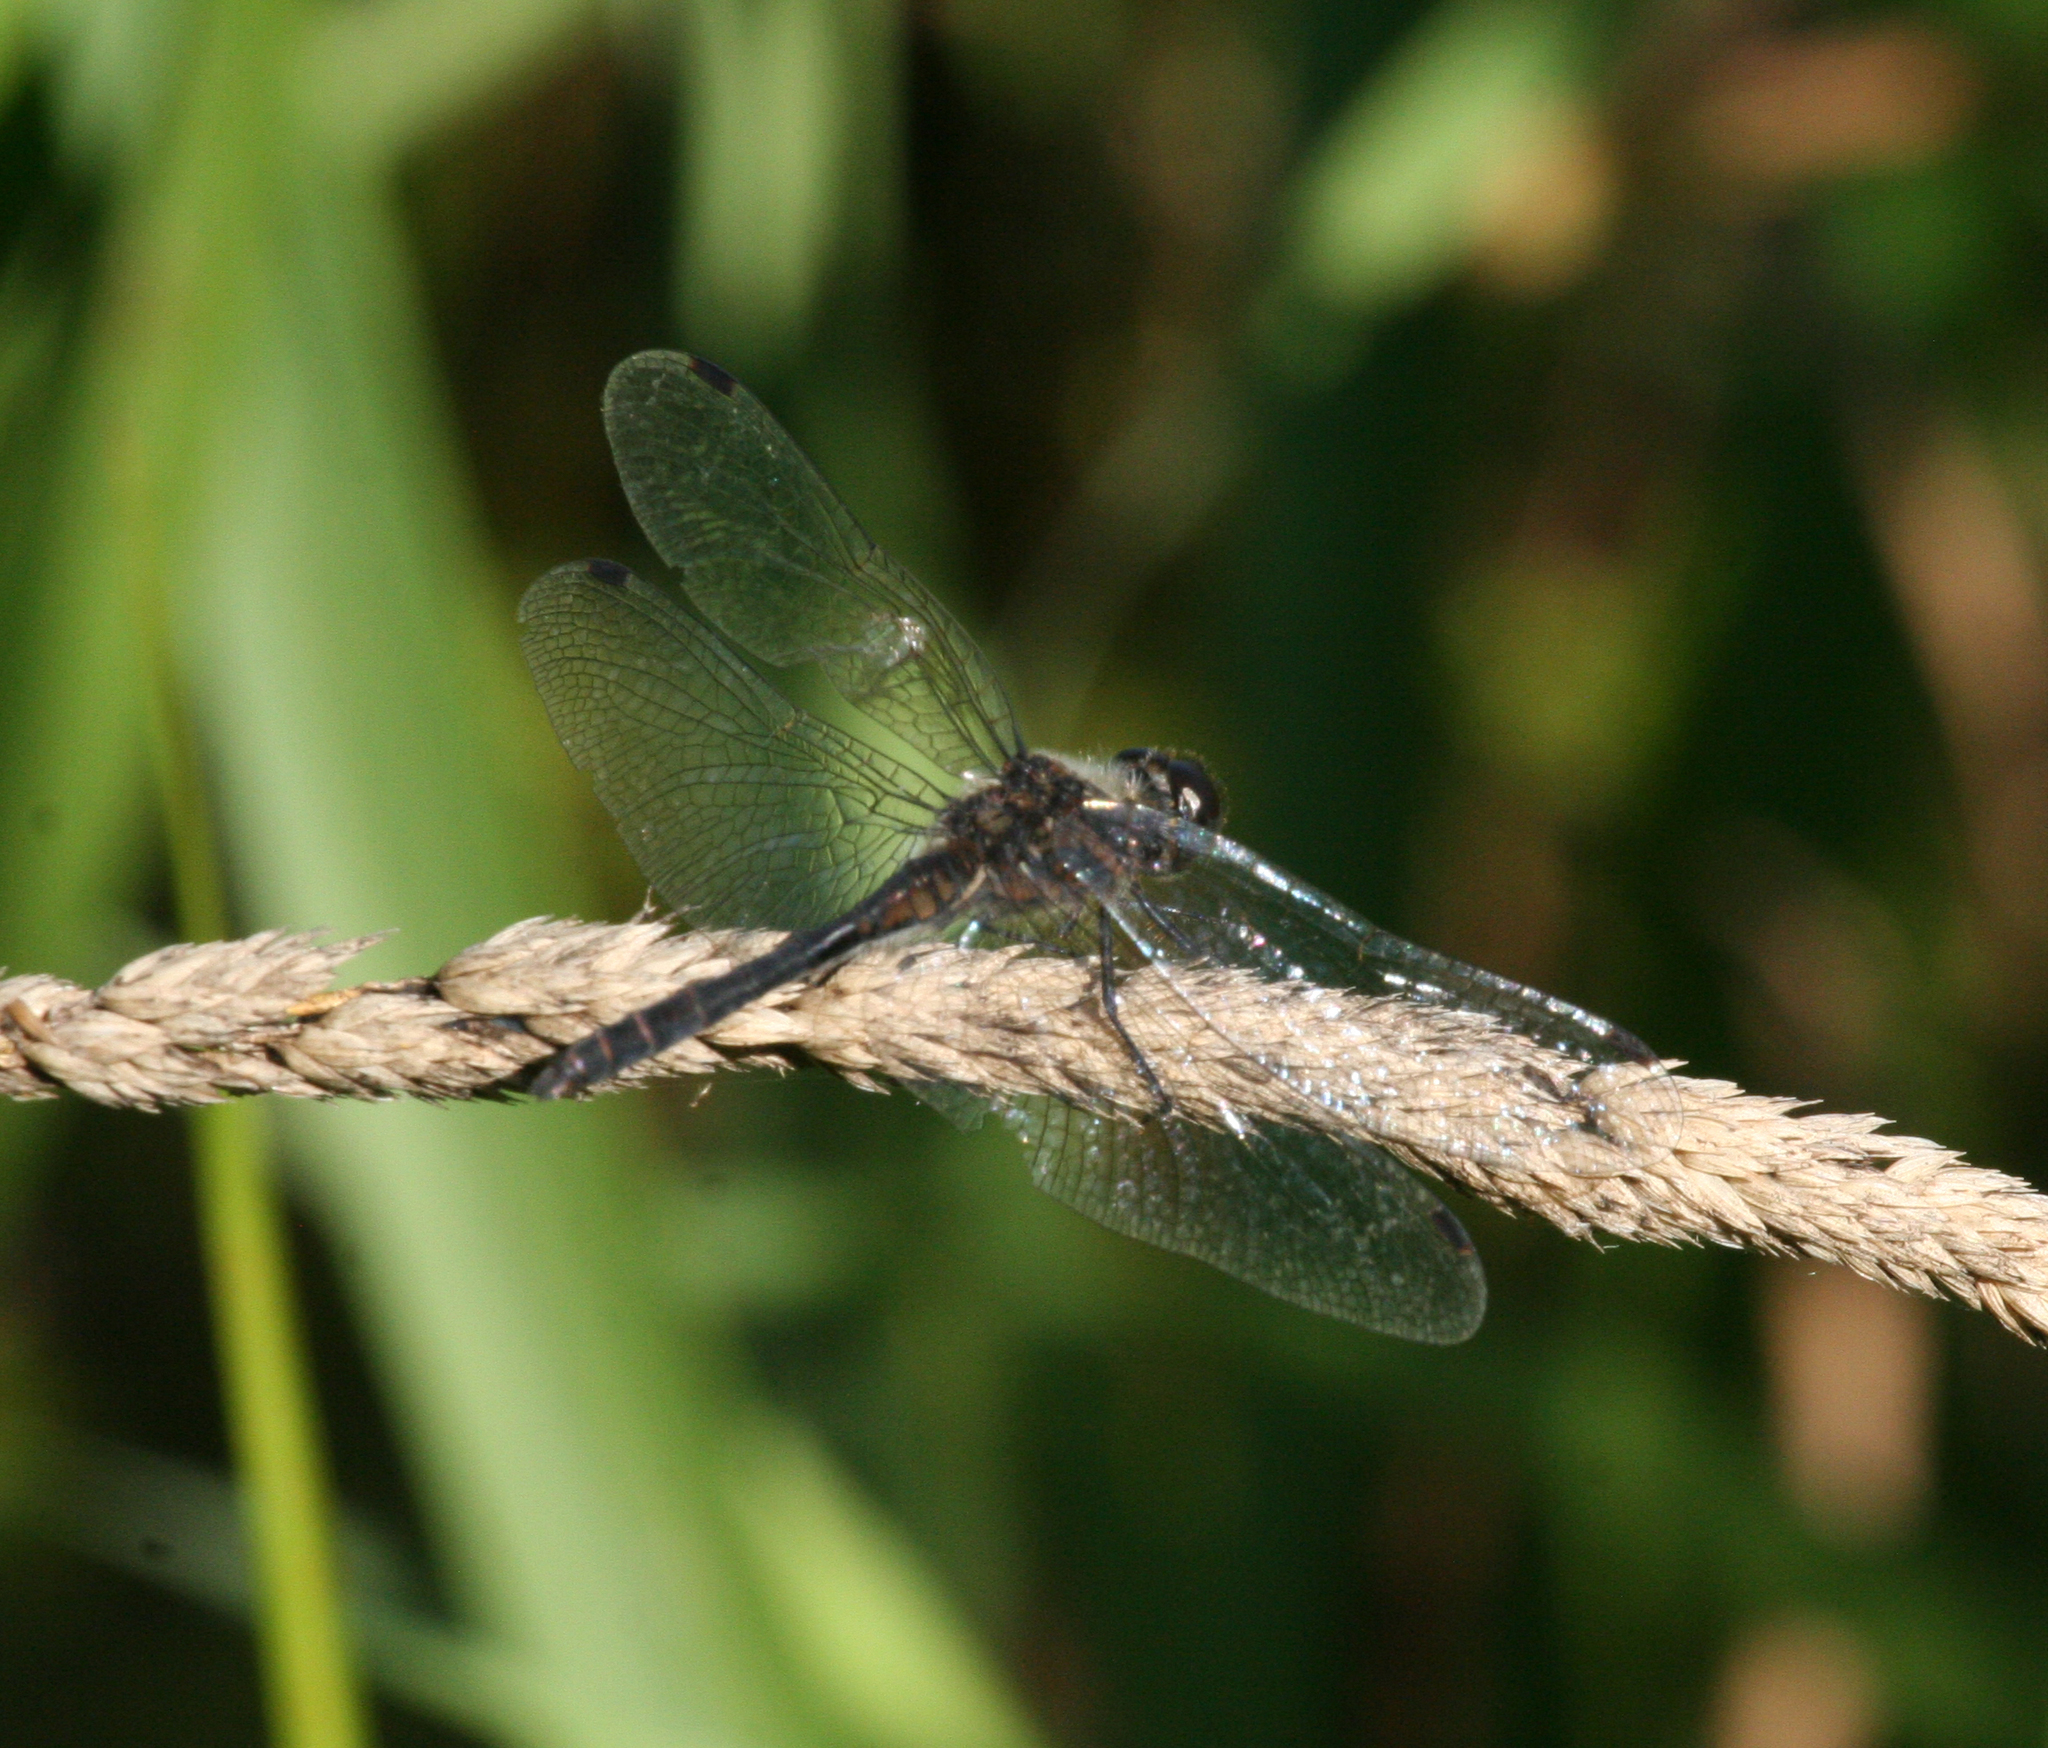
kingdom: Animalia
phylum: Arthropoda
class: Insecta
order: Odonata
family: Libellulidae
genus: Sympetrum
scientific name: Sympetrum danae
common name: Black darter
